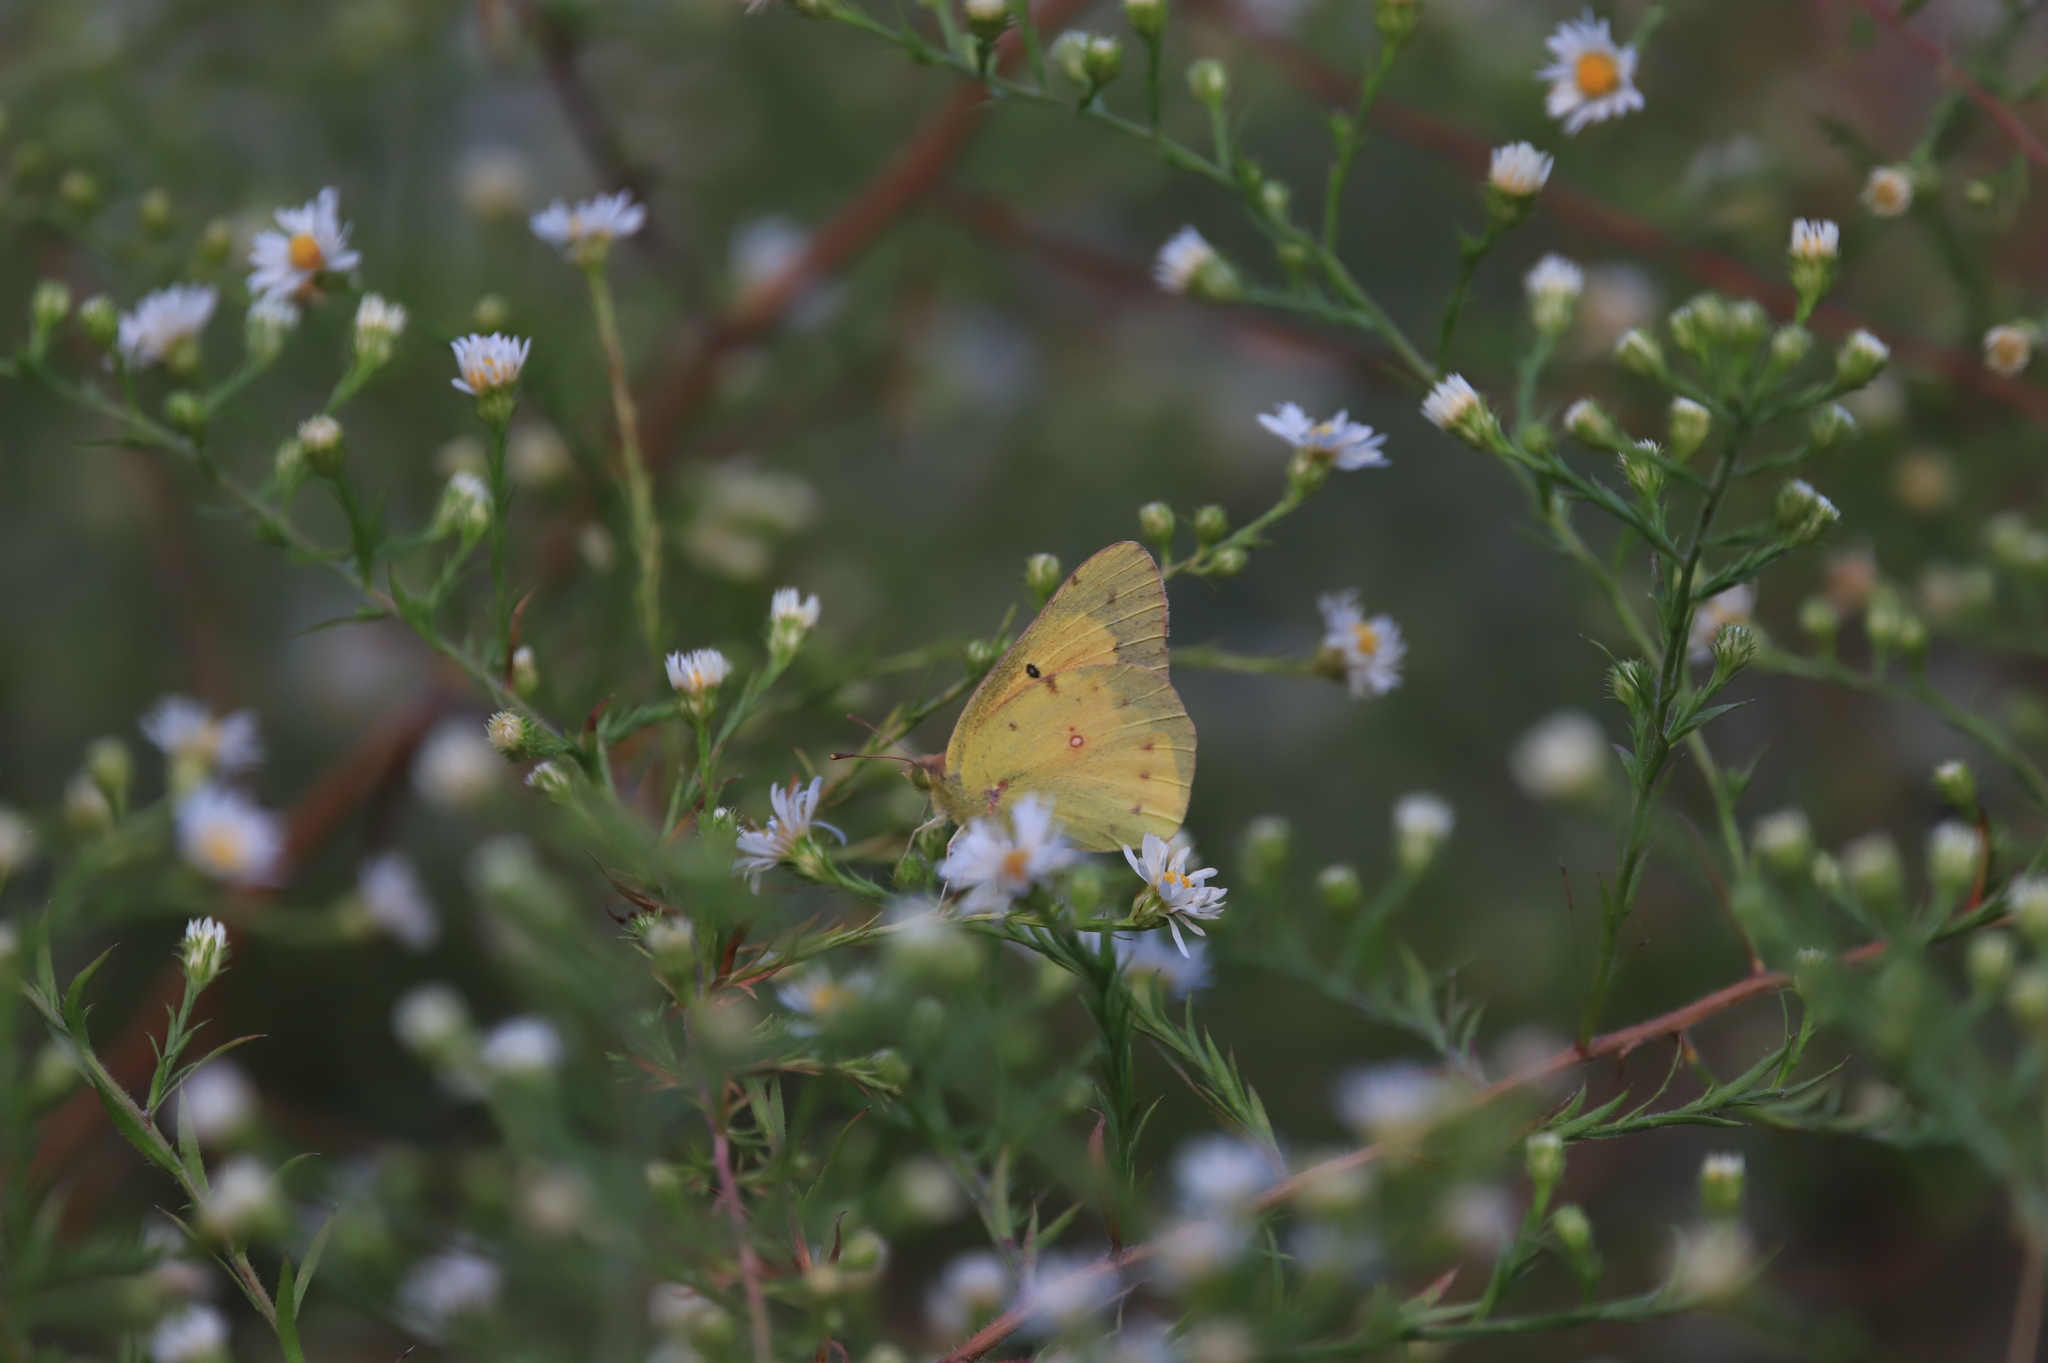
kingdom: Animalia
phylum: Arthropoda
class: Insecta
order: Lepidoptera
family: Pieridae
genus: Colias
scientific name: Colias eurytheme
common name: Alfalfa butterfly
